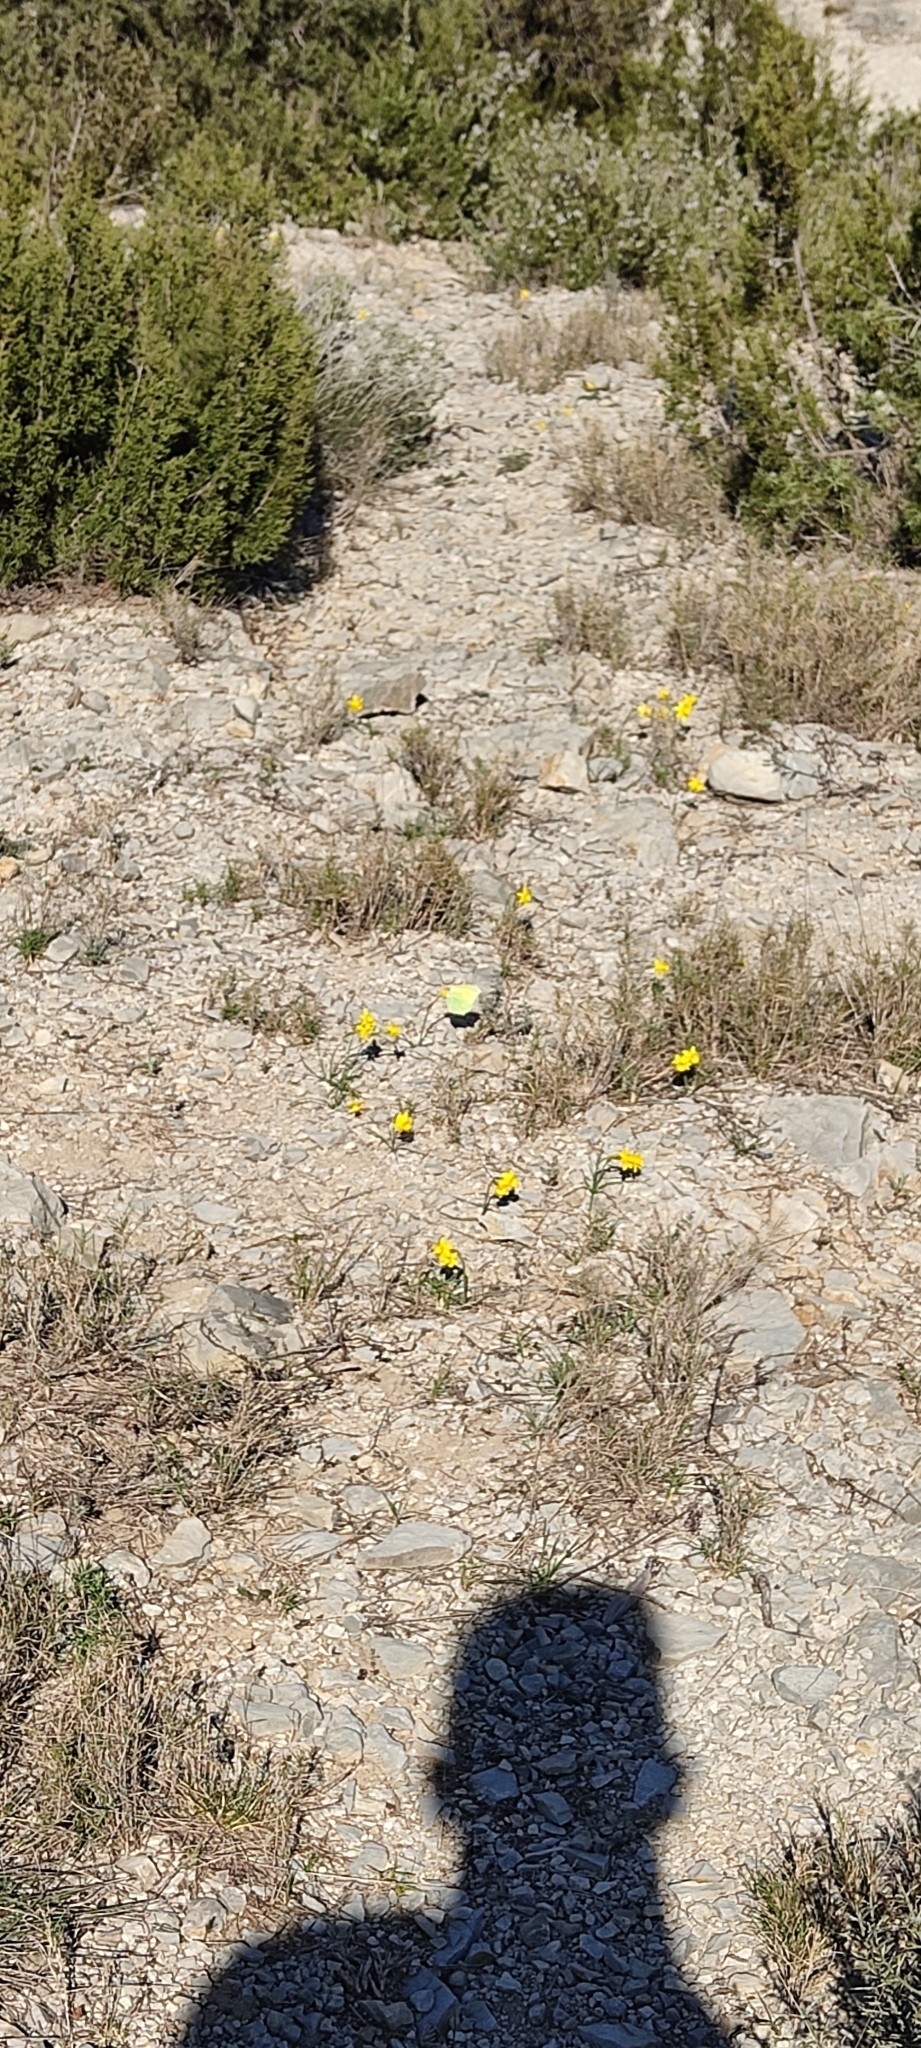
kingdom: Animalia
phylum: Arthropoda
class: Insecta
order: Lepidoptera
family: Pieridae
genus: Gonepteryx
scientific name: Gonepteryx cleopatra
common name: Cleopatra
